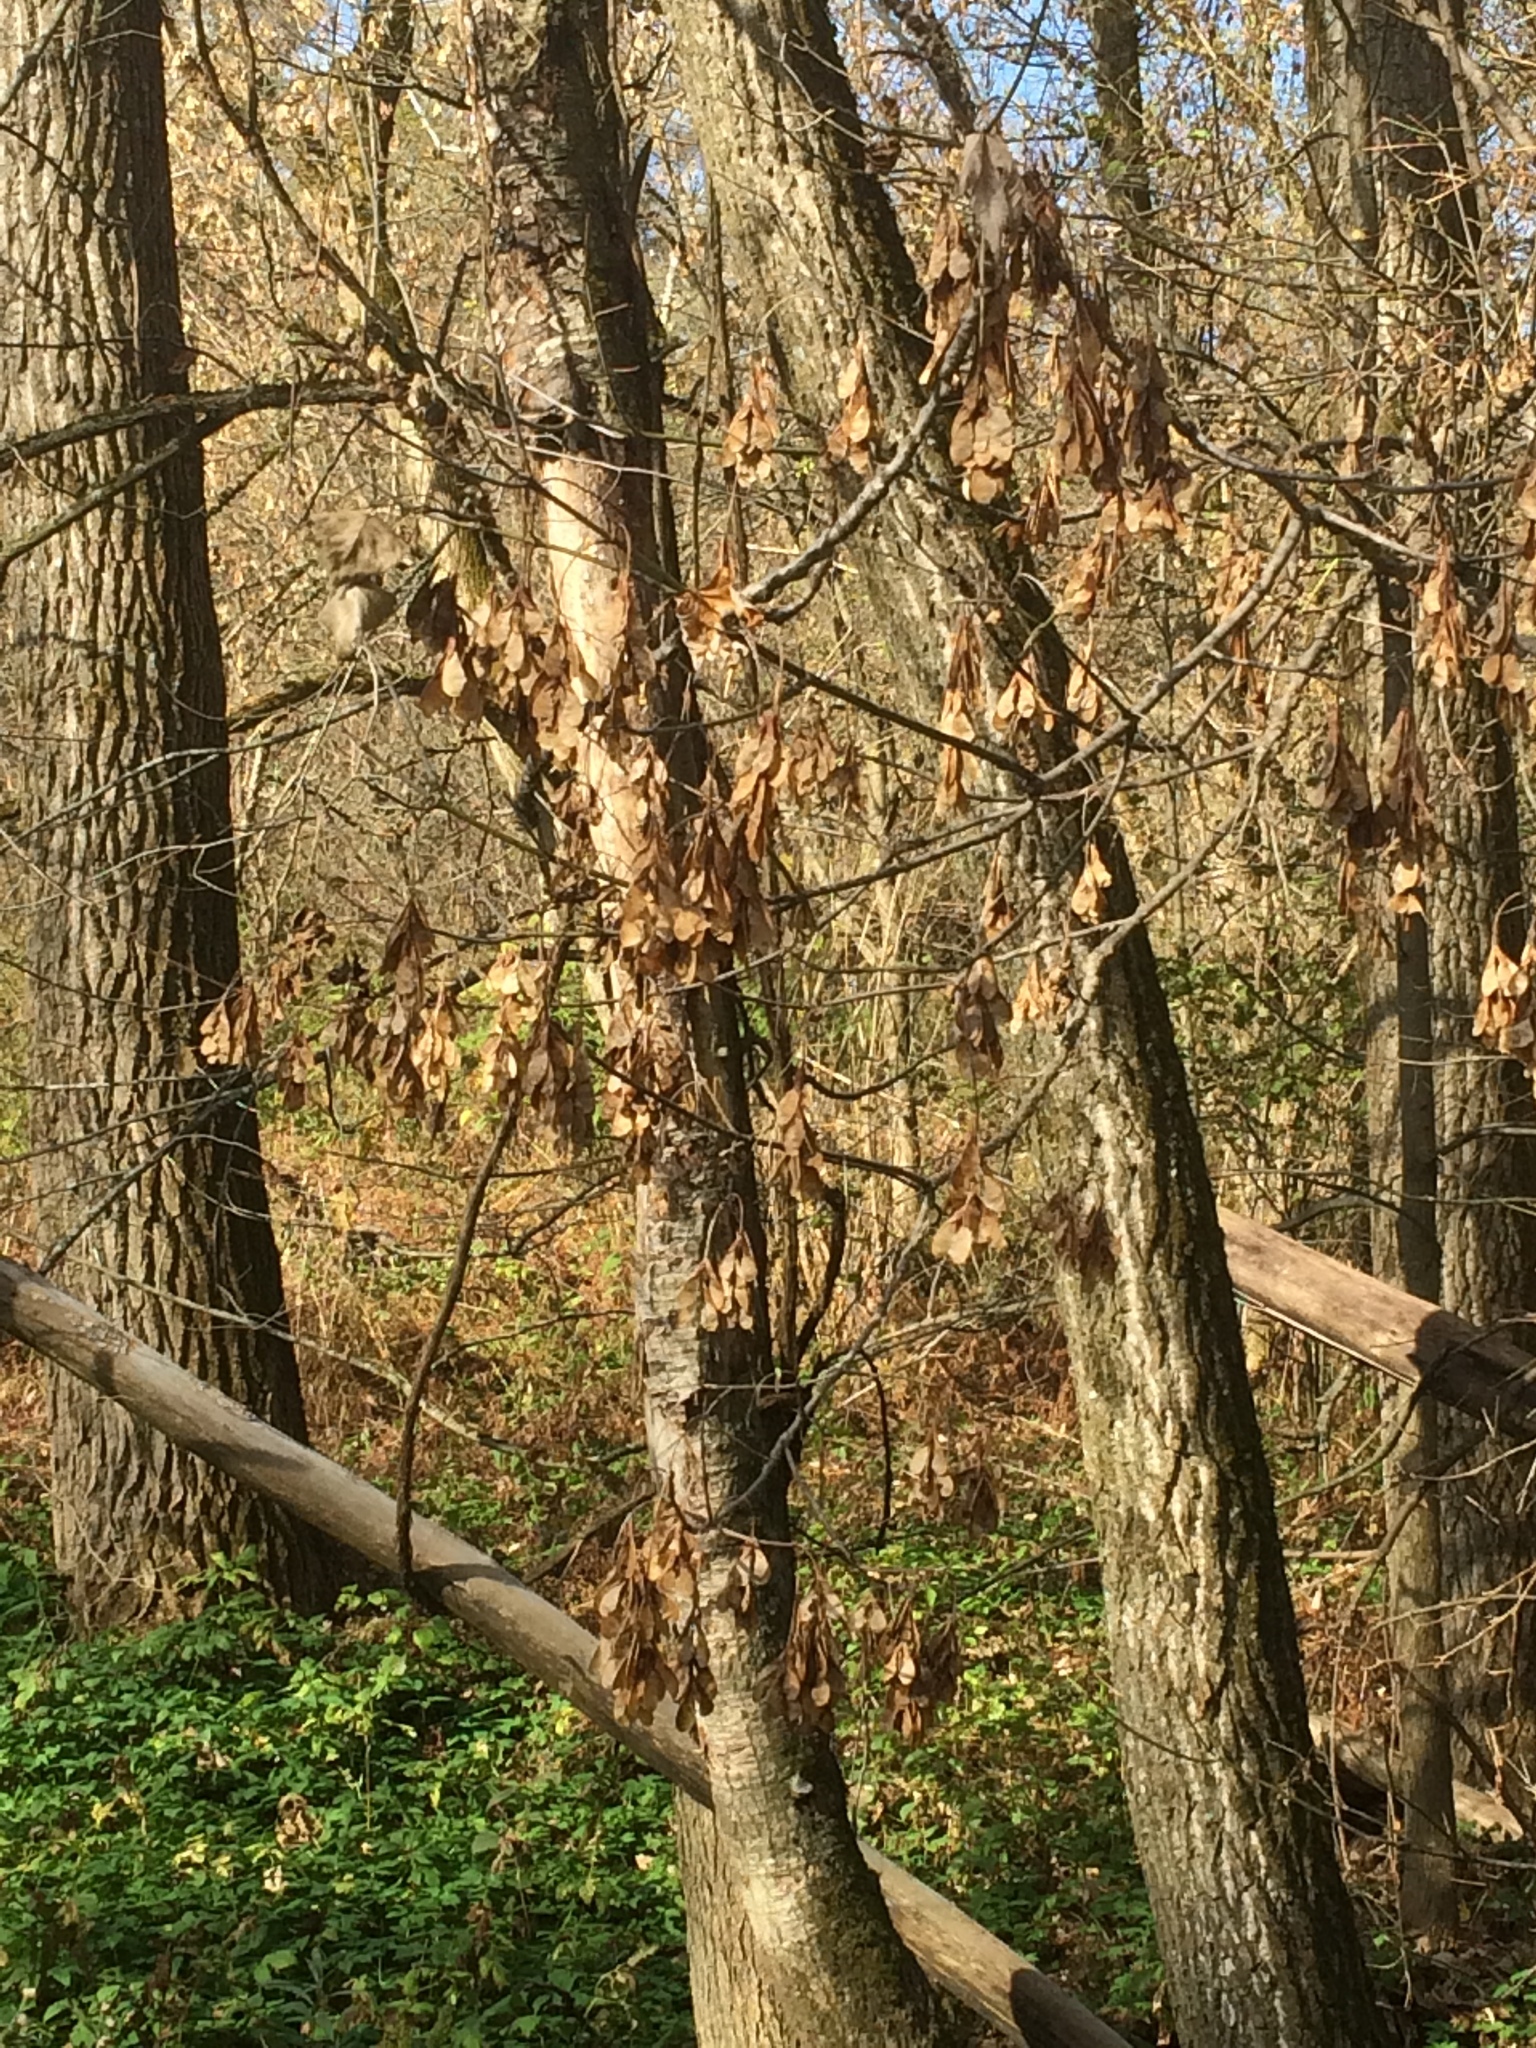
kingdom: Plantae
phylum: Tracheophyta
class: Magnoliopsida
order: Sapindales
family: Sapindaceae
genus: Acer
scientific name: Acer negundo
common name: Ashleaf maple
